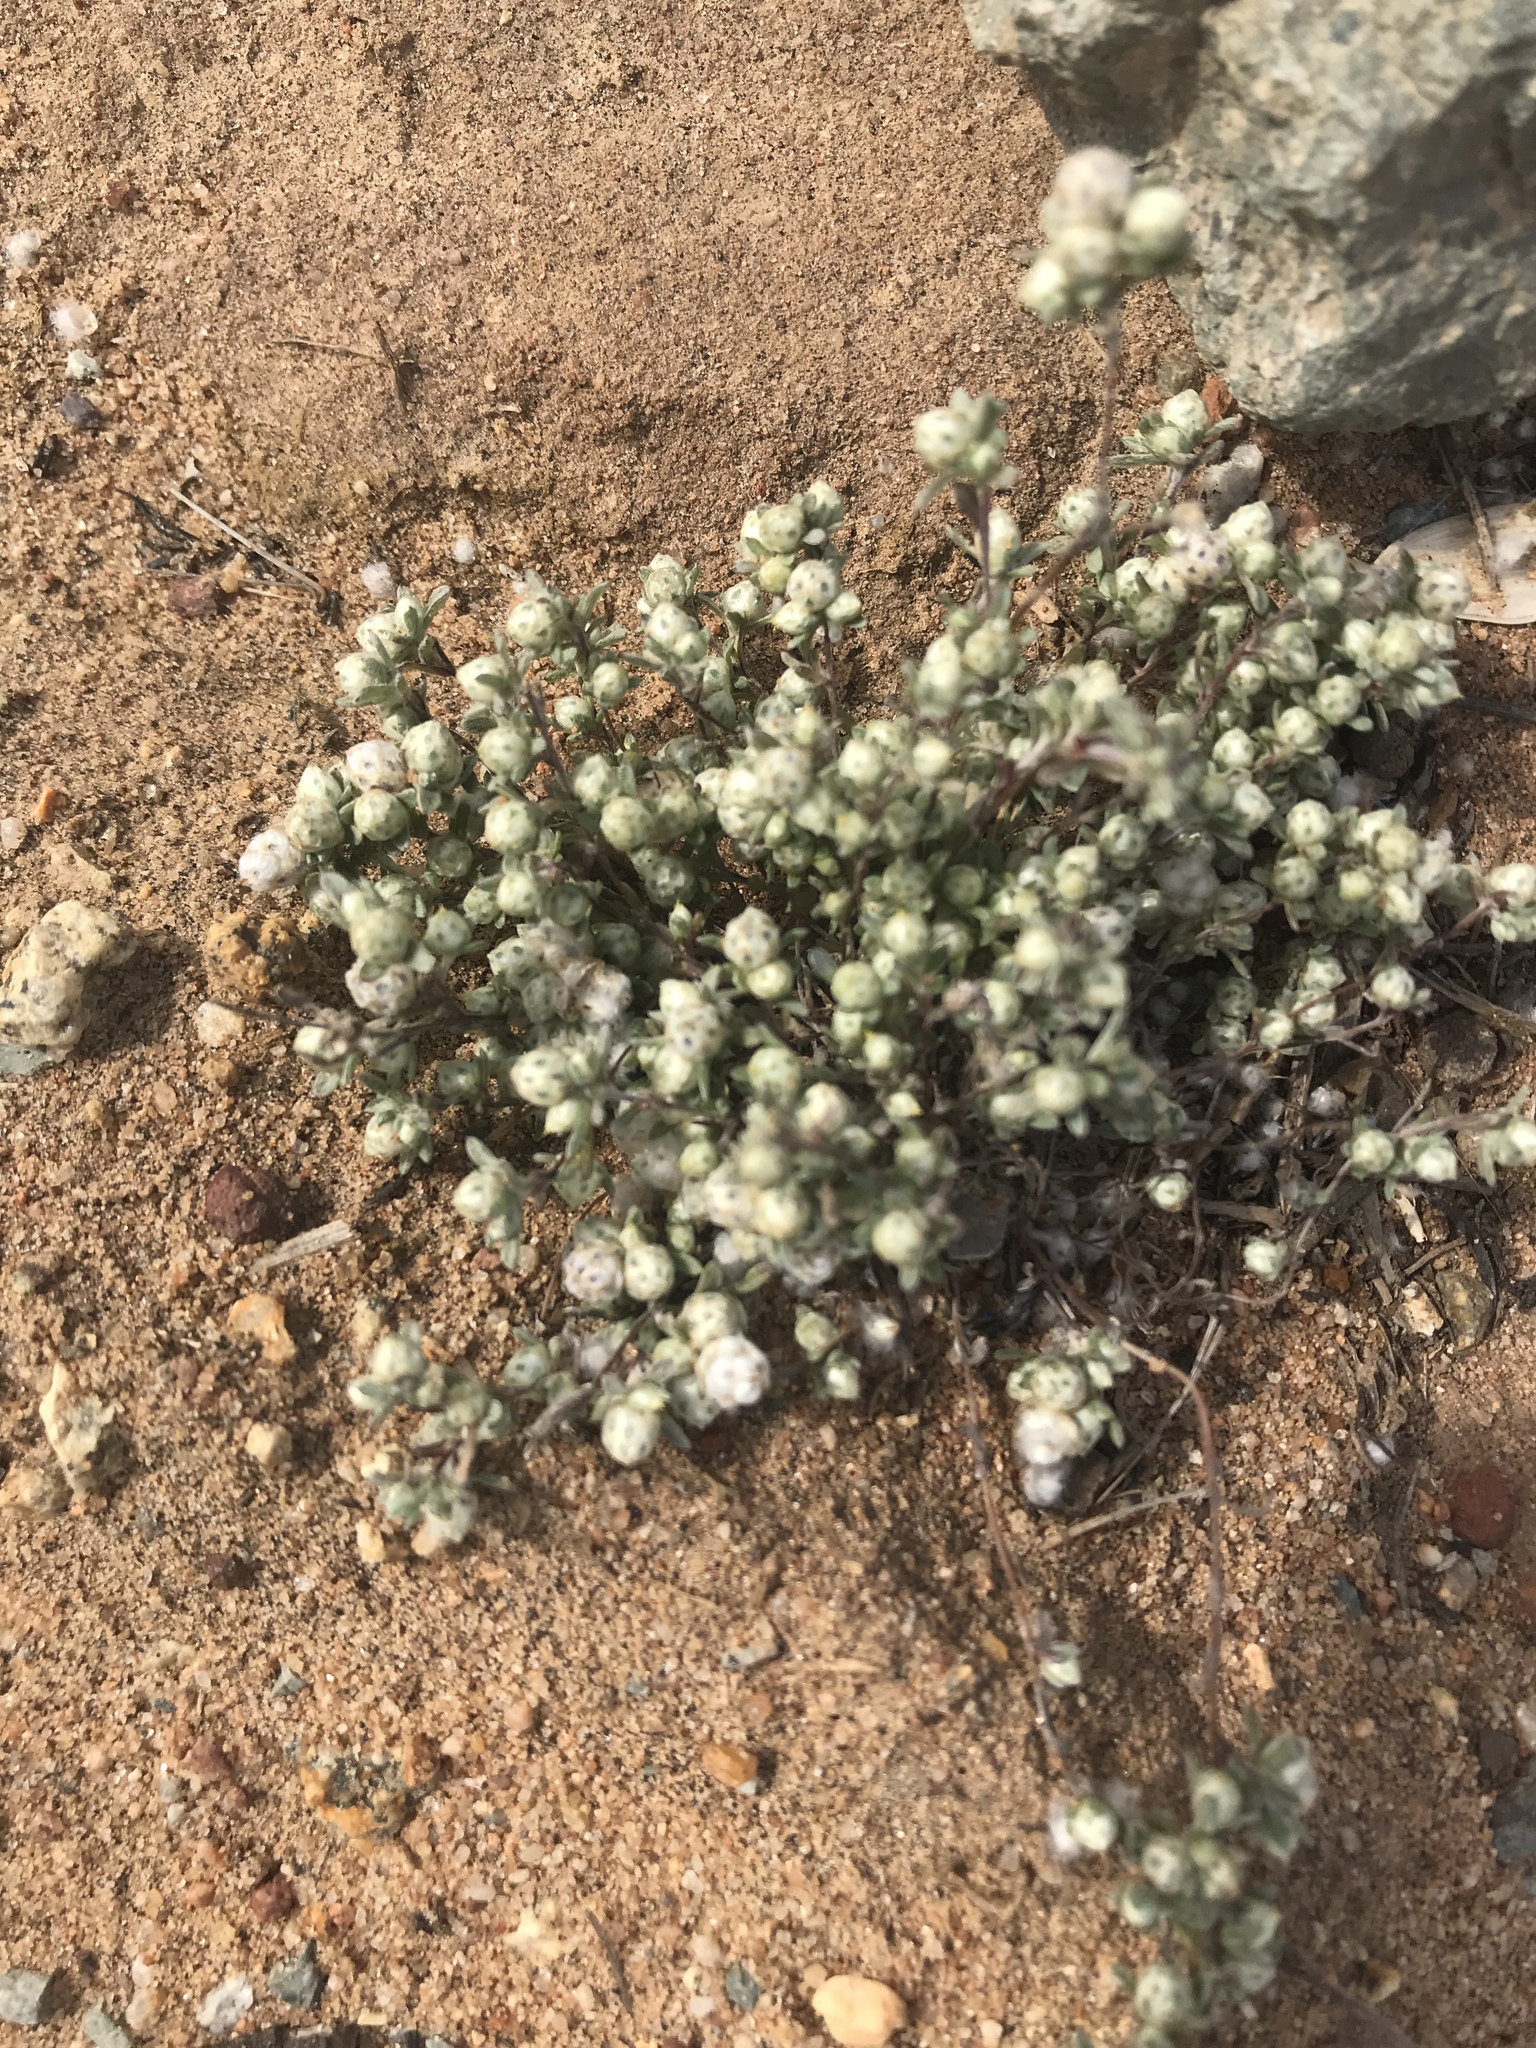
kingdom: Plantae
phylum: Tracheophyta
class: Magnoliopsida
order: Asterales
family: Asteraceae
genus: Stylocline
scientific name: Stylocline gnaphaloides
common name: Everlasting nest-straw
